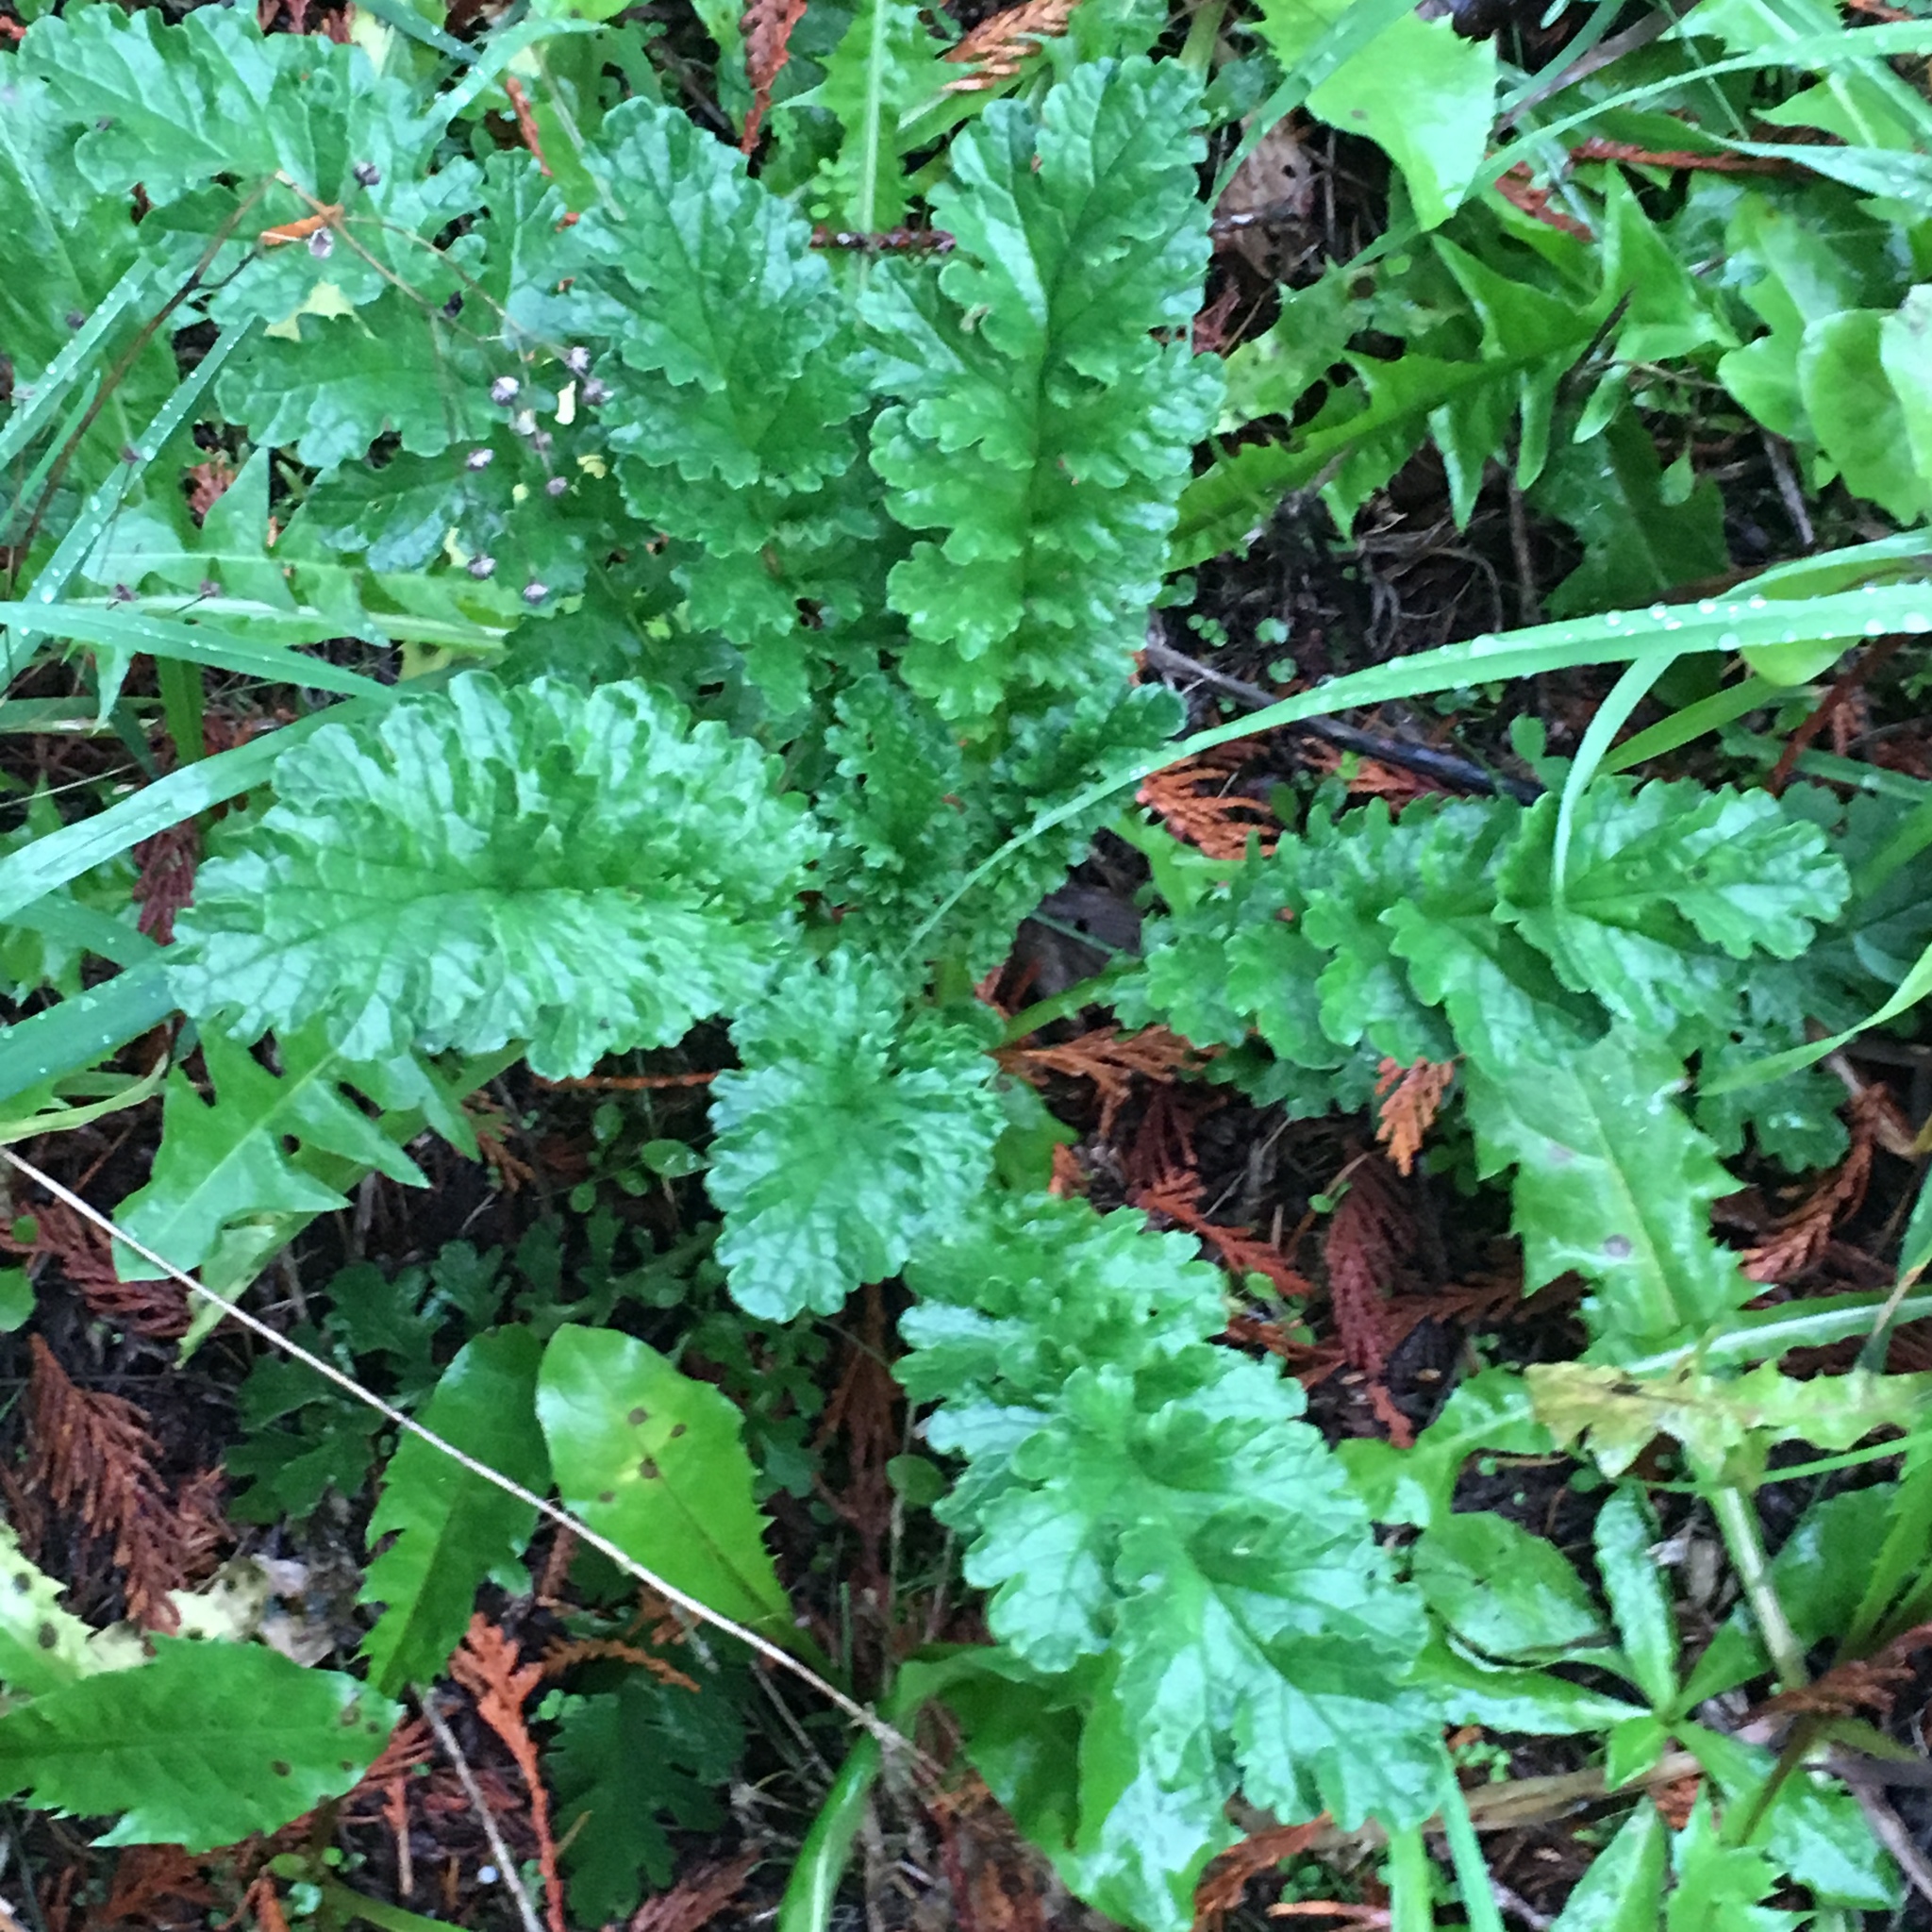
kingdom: Plantae
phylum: Tracheophyta
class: Magnoliopsida
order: Asterales
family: Asteraceae
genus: Jacobaea
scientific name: Jacobaea vulgaris
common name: Stinking willie
